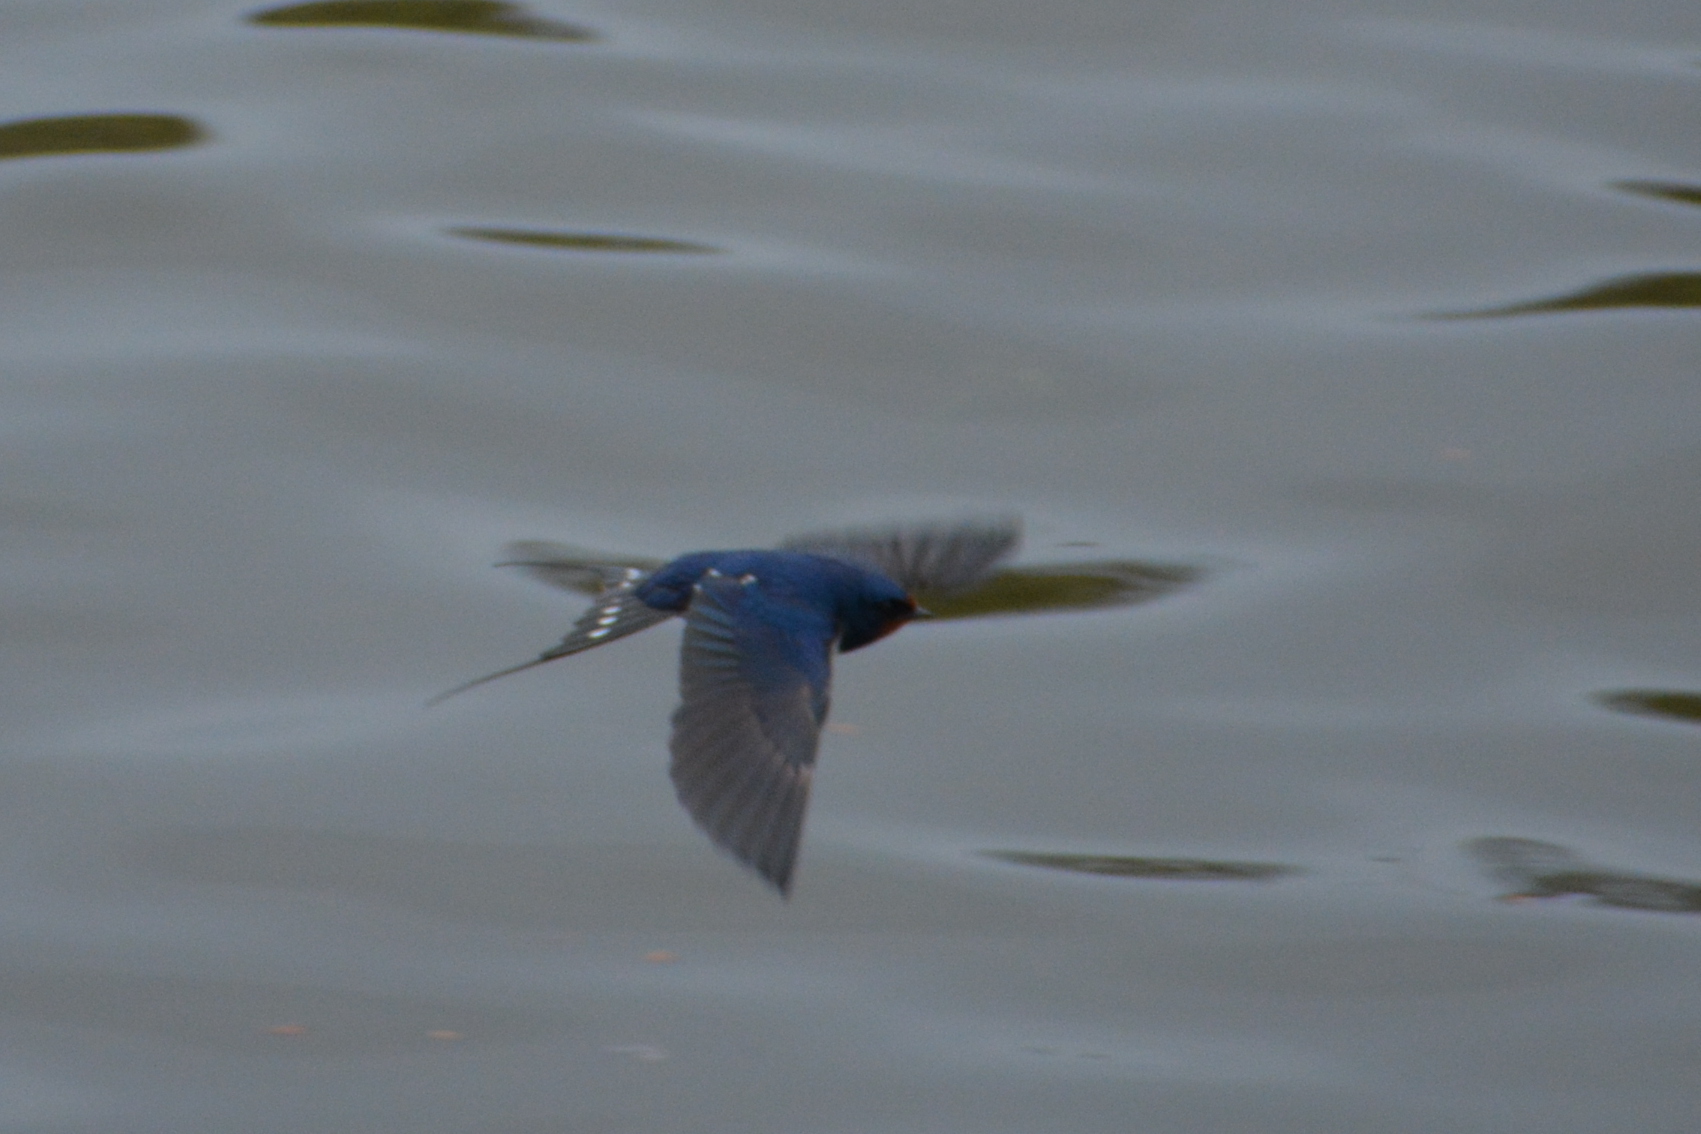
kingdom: Animalia
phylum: Chordata
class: Aves
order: Passeriformes
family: Hirundinidae
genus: Hirundo
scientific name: Hirundo rustica
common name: Barn swallow
